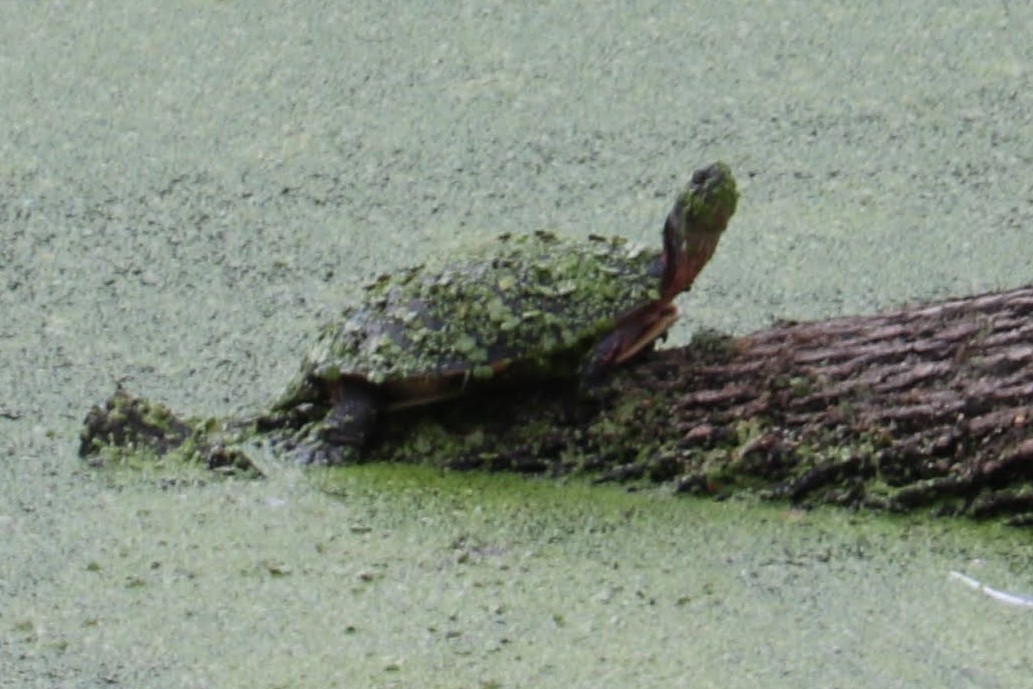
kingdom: Animalia
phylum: Chordata
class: Testudines
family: Emydidae
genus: Chrysemys
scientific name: Chrysemys picta
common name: Painted turtle
